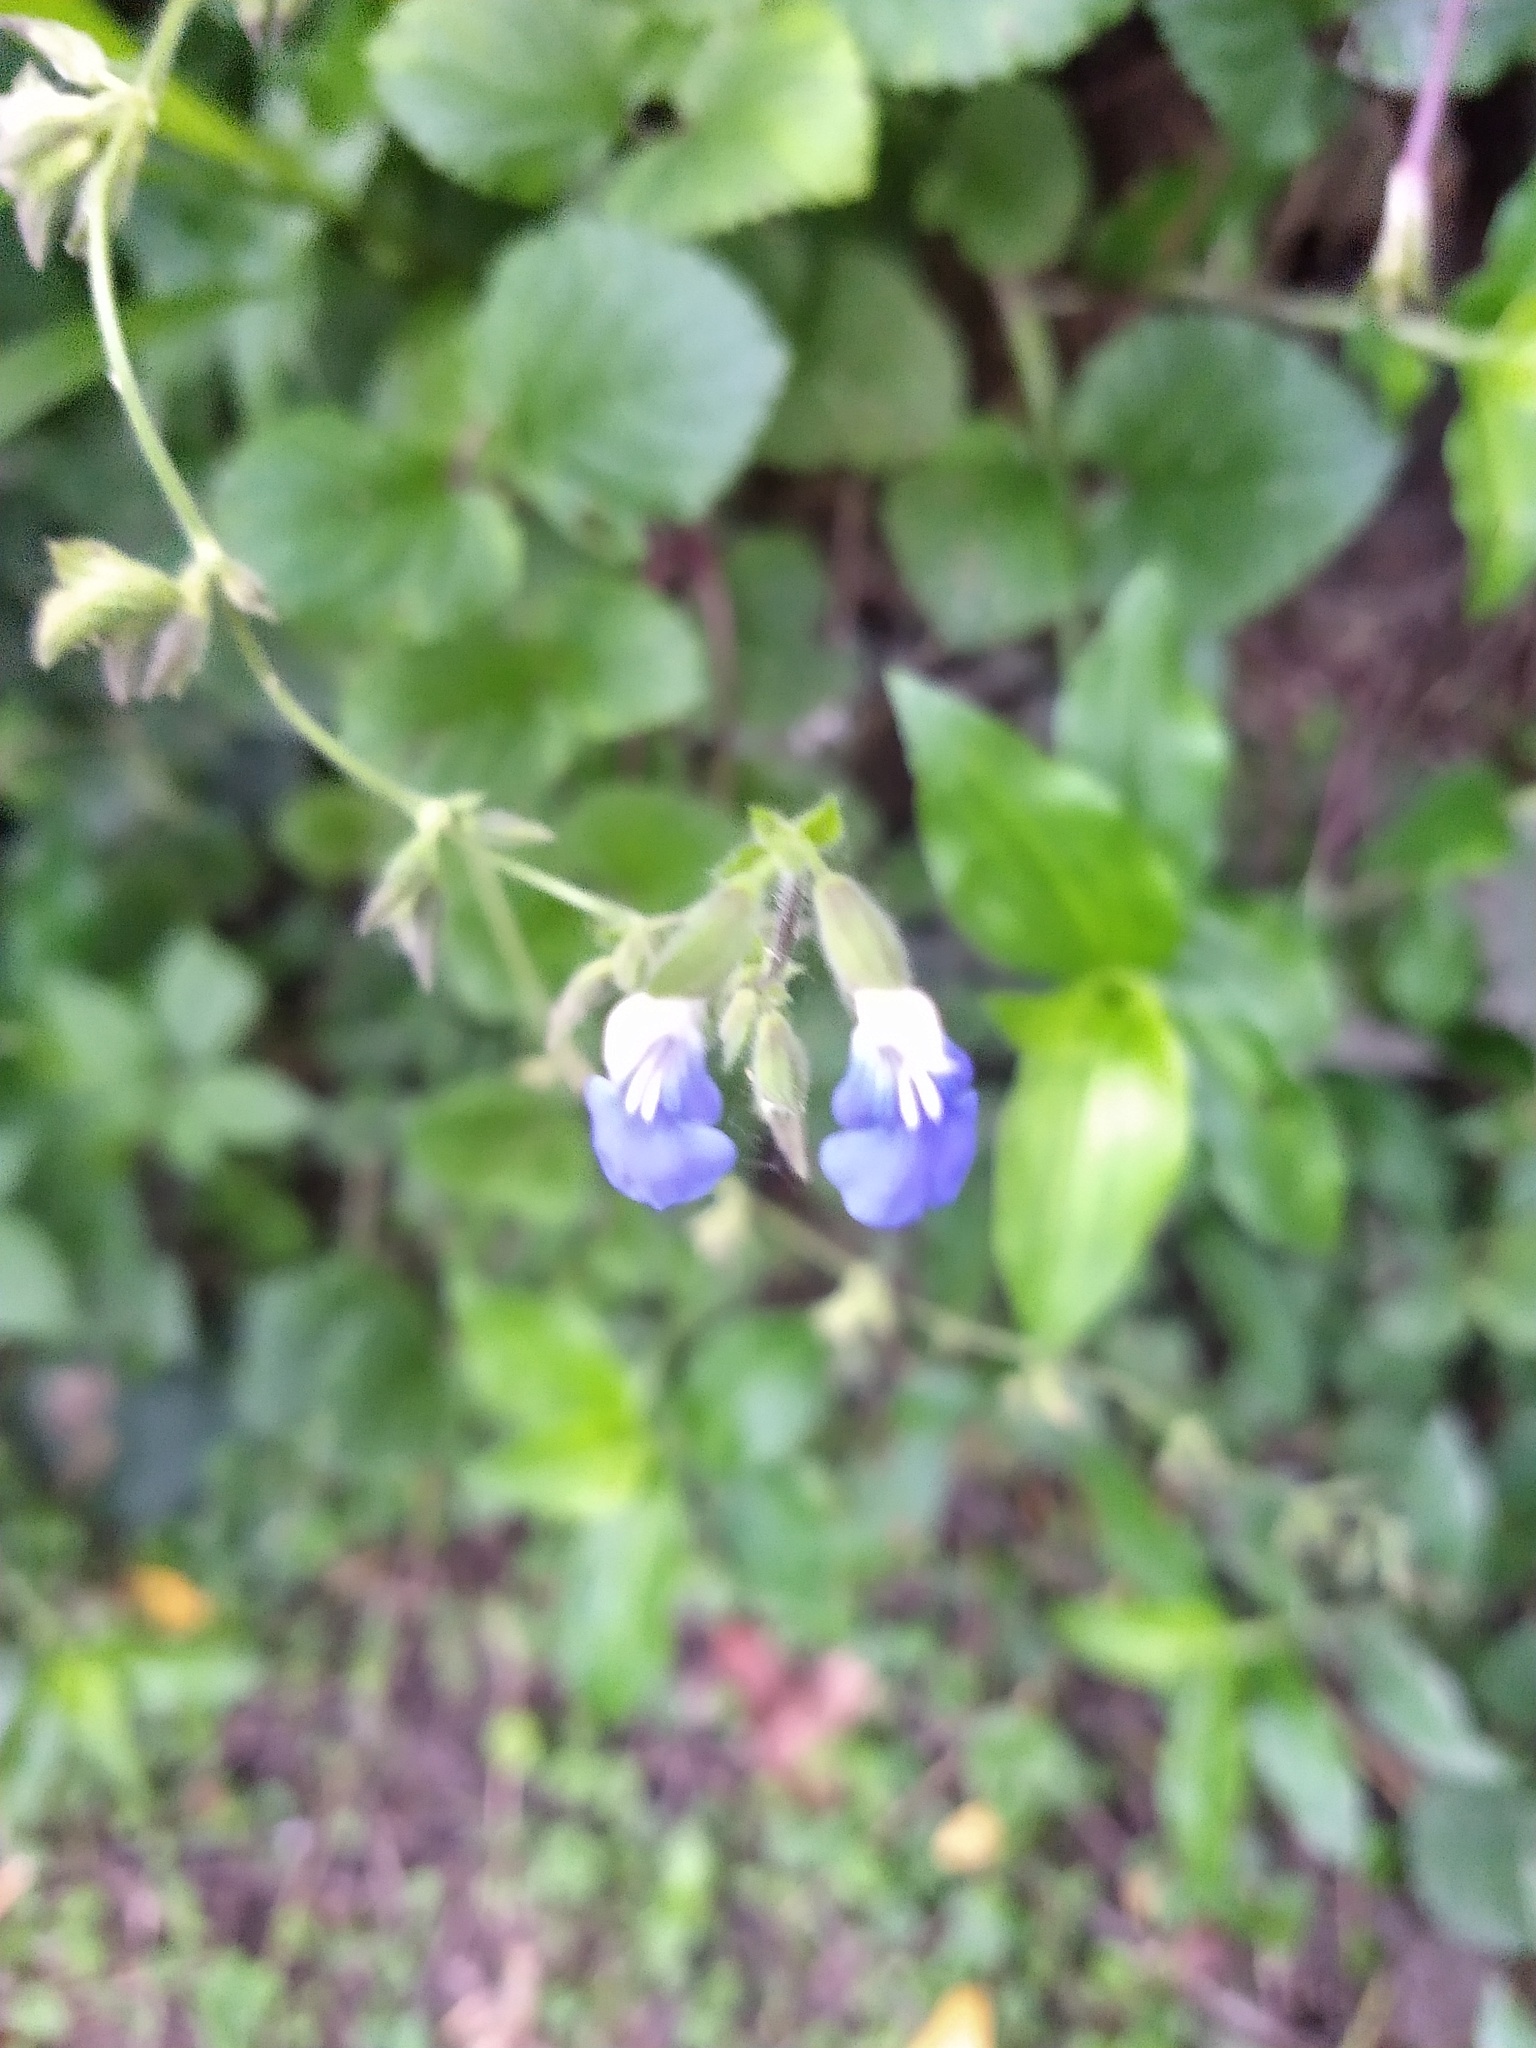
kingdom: Plantae
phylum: Tracheophyta
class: Magnoliopsida
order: Lamiales
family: Lamiaceae
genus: Salvia
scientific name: Salvia procurrens
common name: Blue creeper
